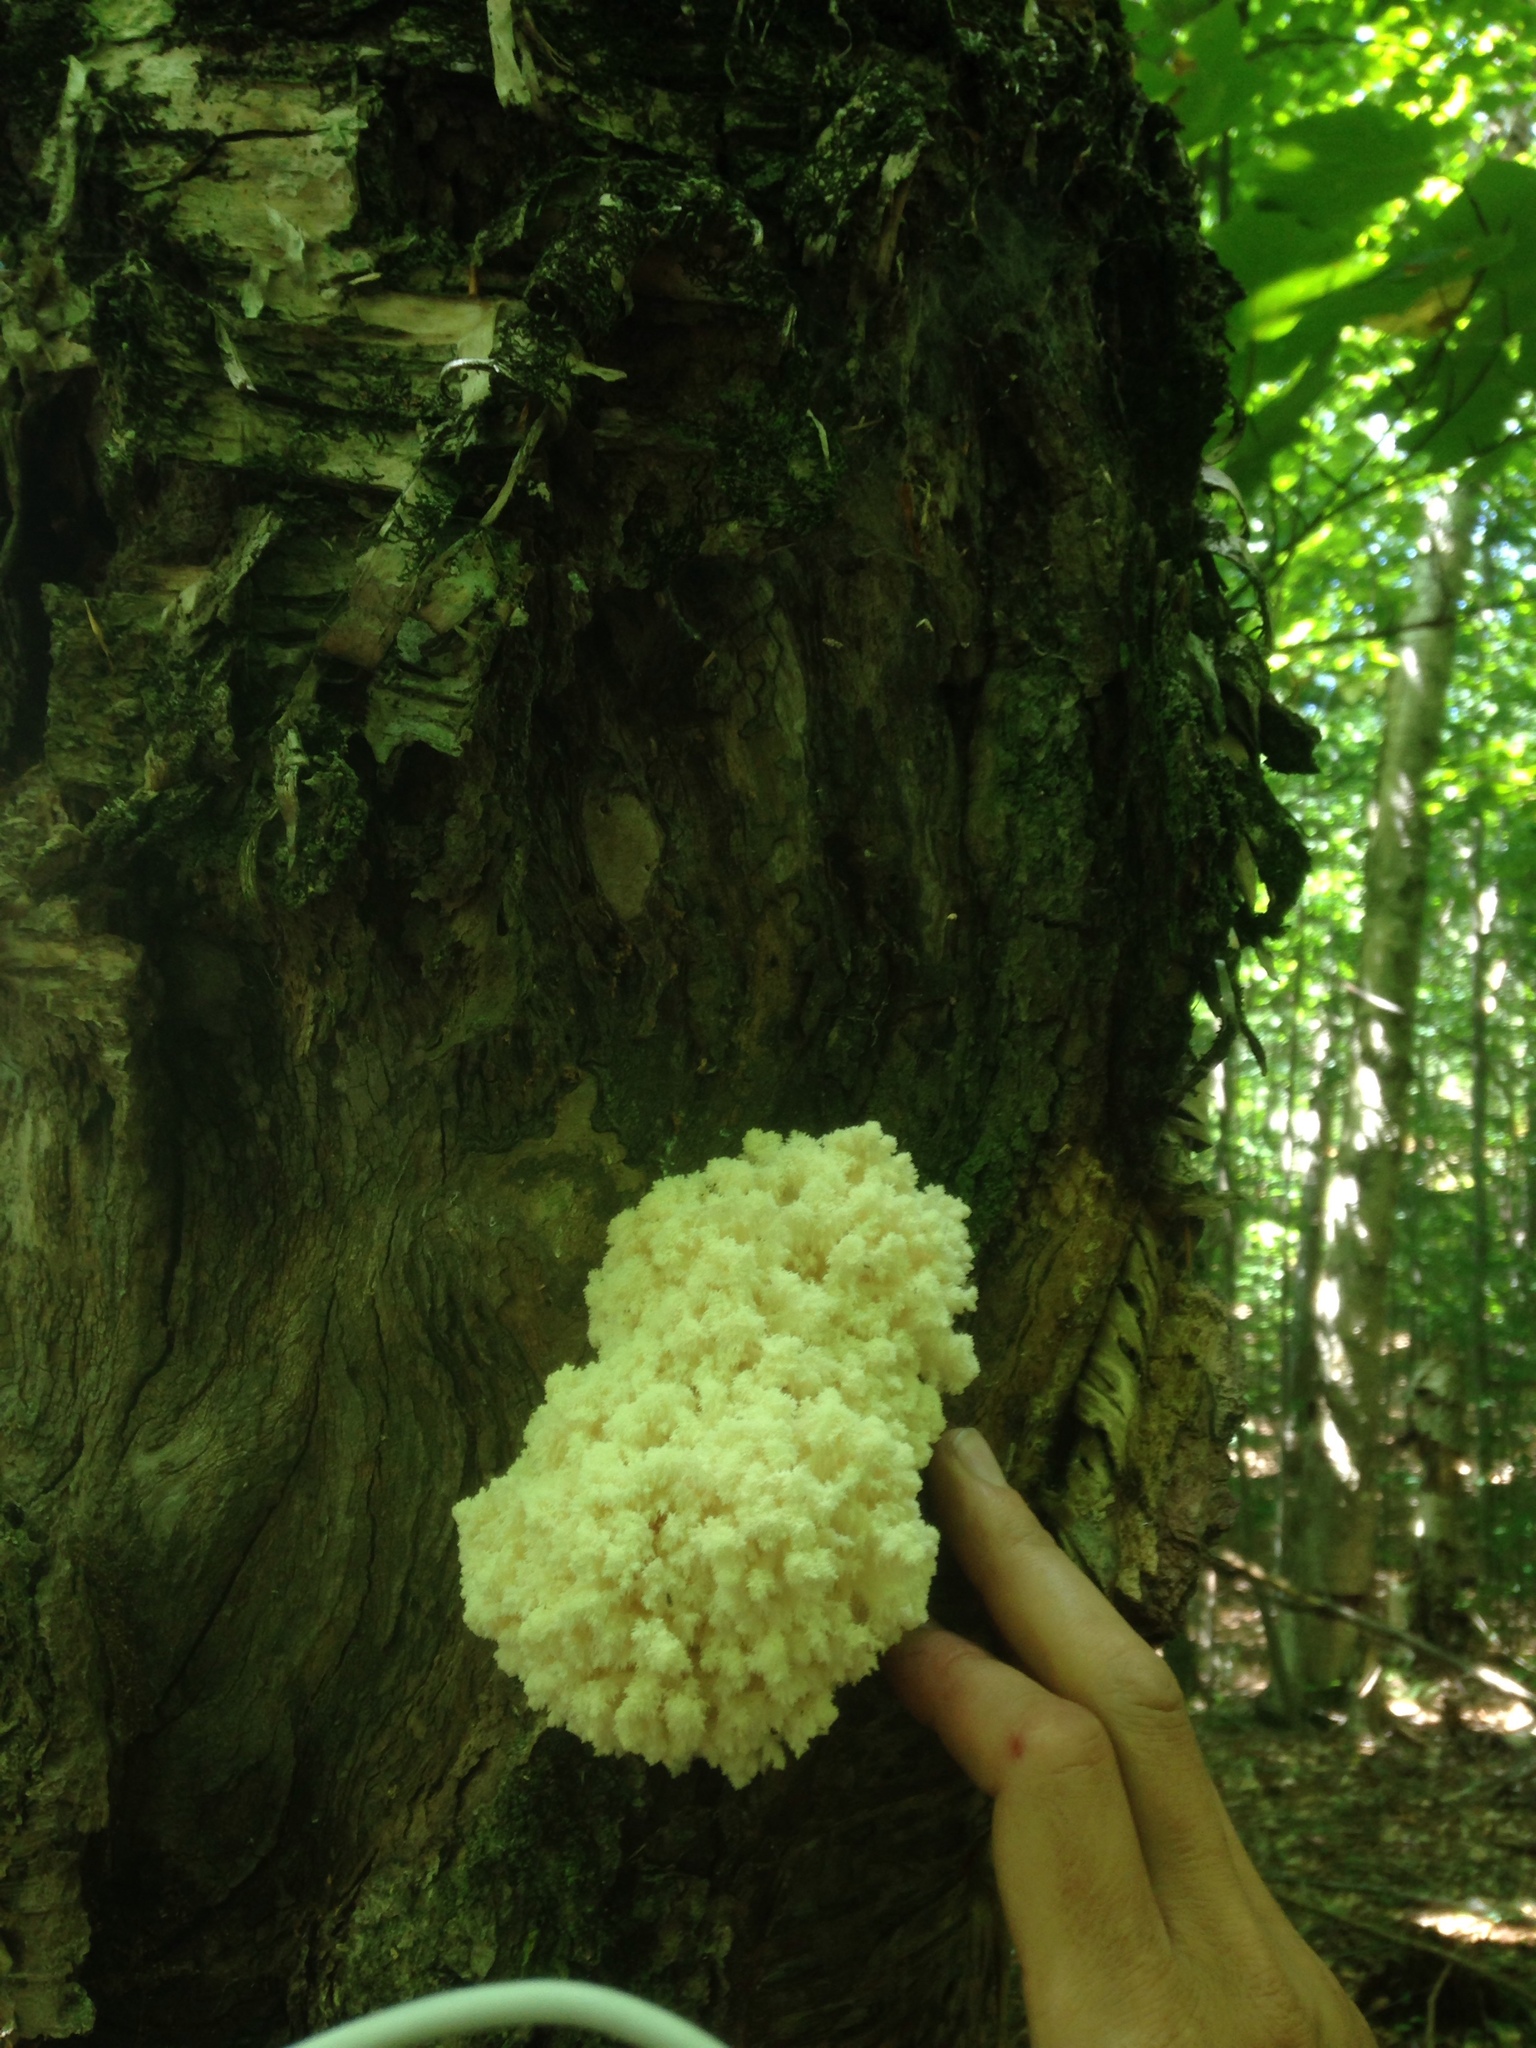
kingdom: Fungi
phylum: Basidiomycota
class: Agaricomycetes
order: Russulales
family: Hericiaceae
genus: Hericium
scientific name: Hericium coralloides
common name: Coral tooth
